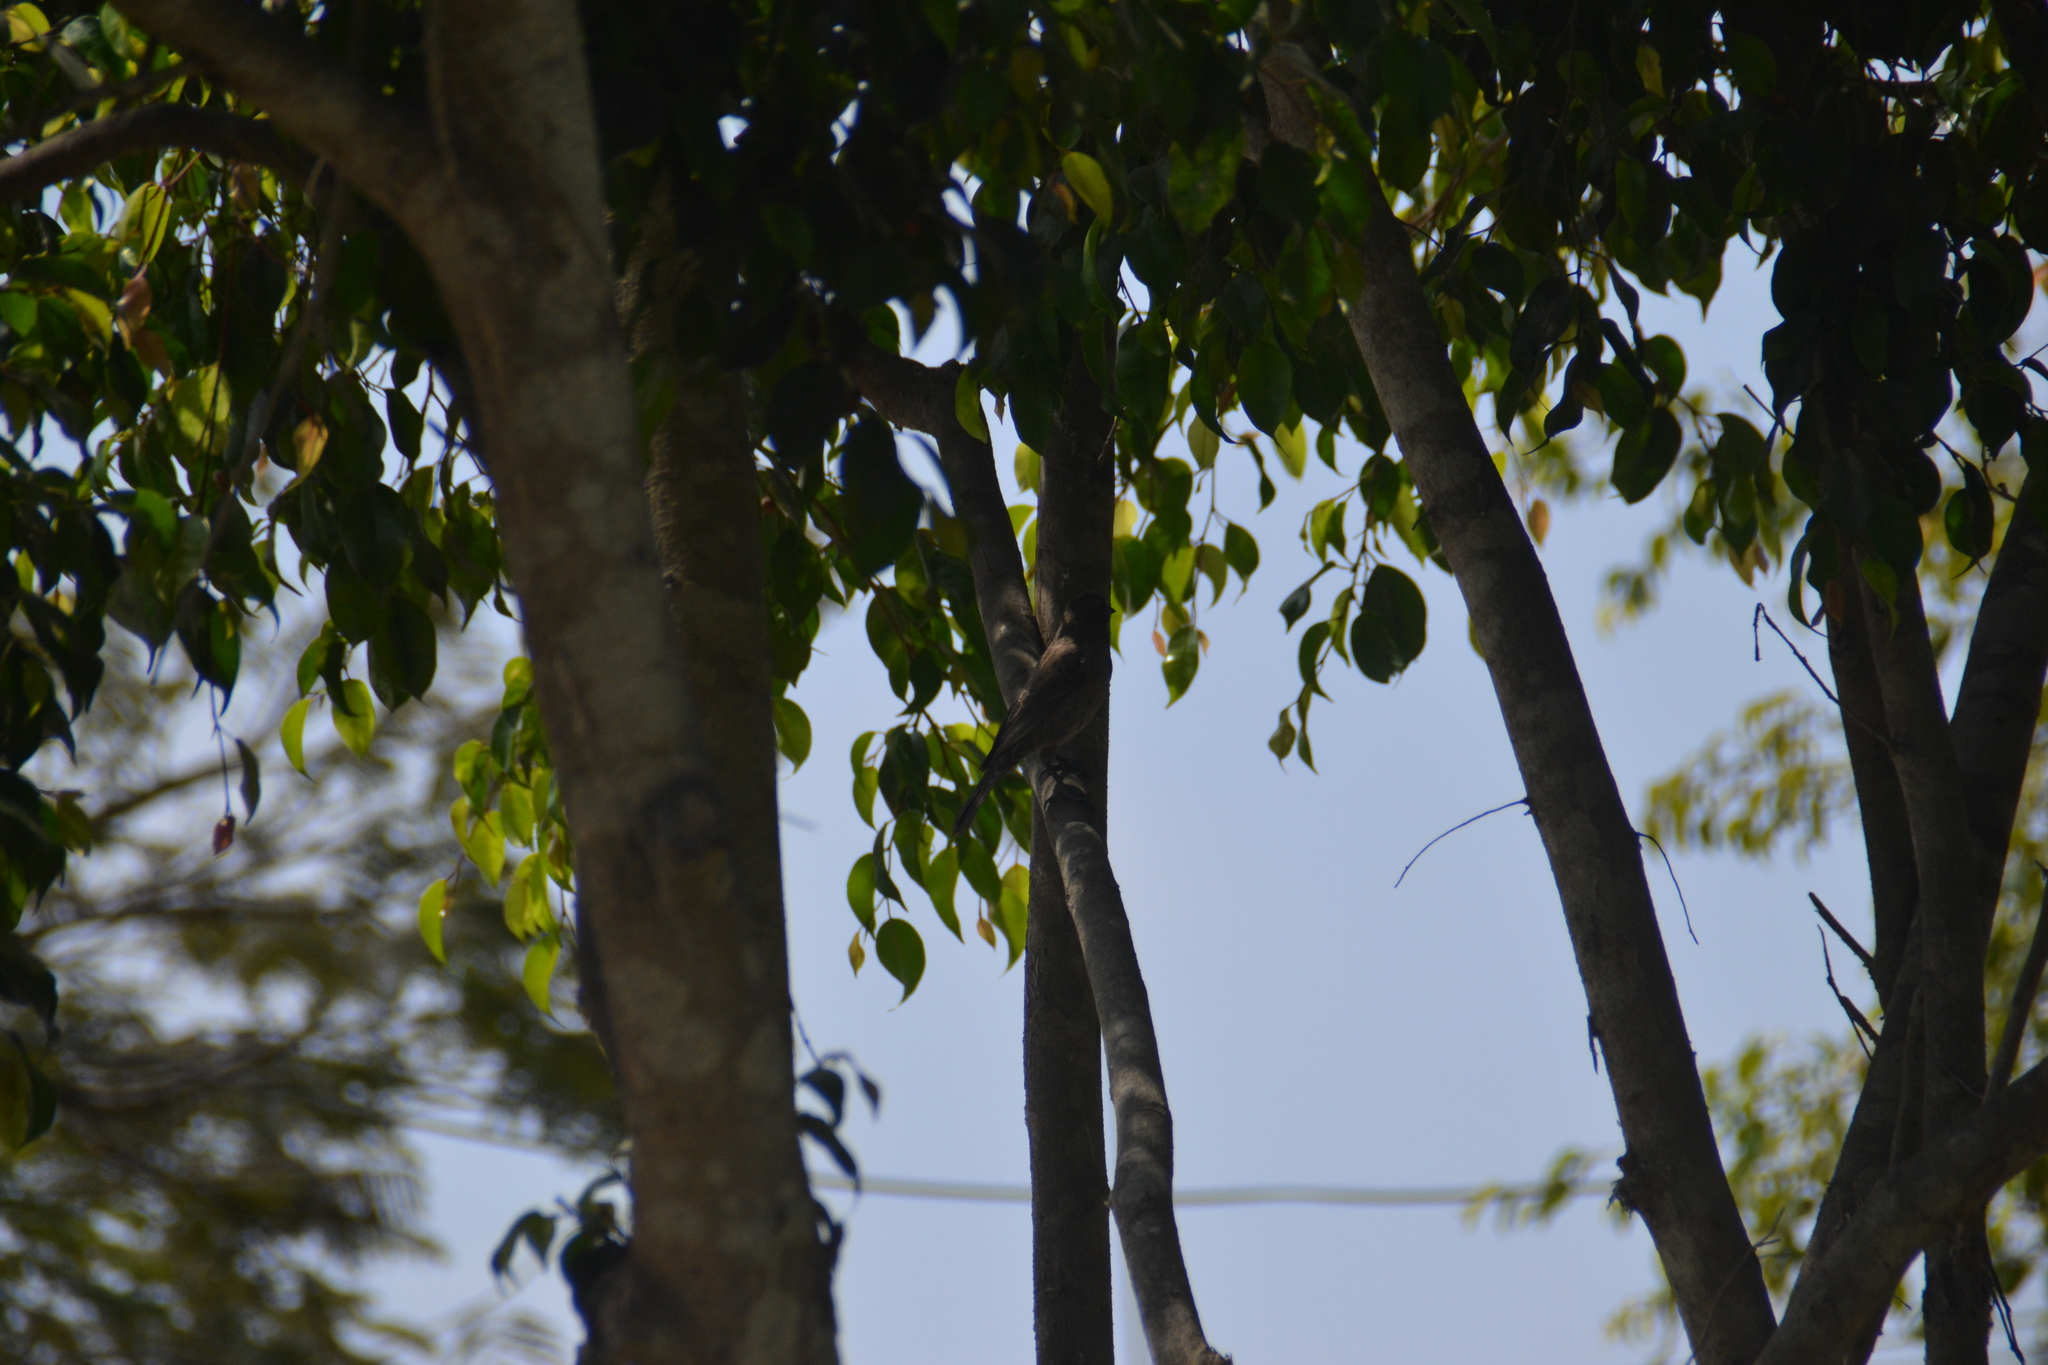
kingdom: Animalia
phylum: Chordata
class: Aves
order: Passeriformes
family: Icteridae
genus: Molothrus
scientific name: Molothrus bonariensis
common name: Shiny cowbird
